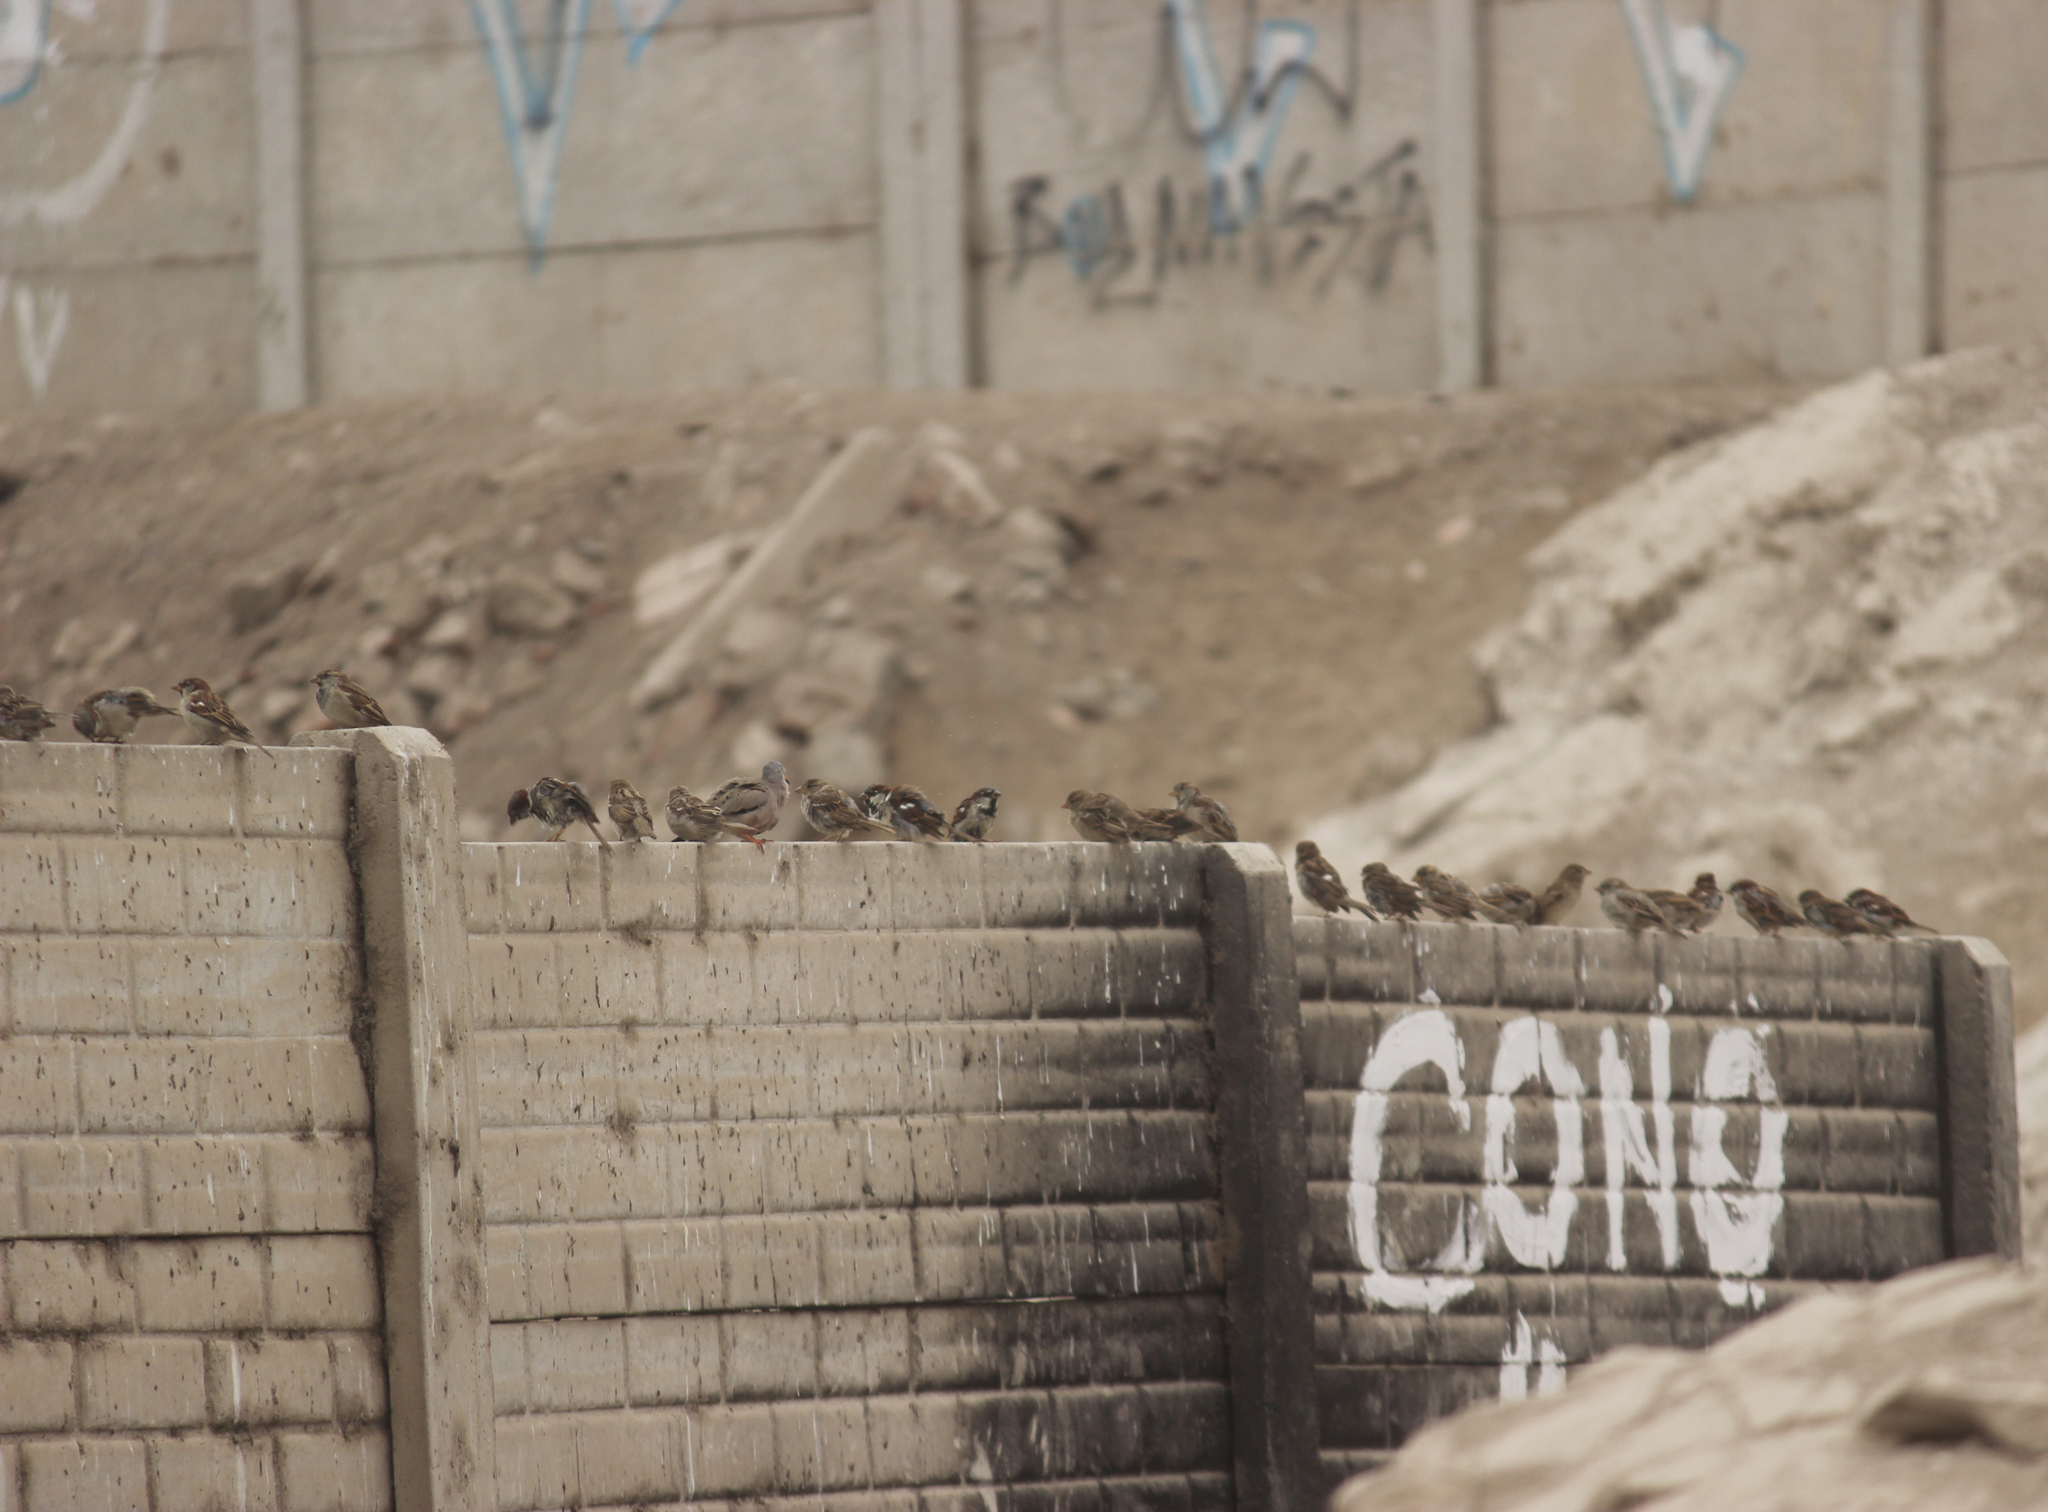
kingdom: Animalia
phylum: Chordata
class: Aves
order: Passeriformes
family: Passeridae
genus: Passer
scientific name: Passer domesticus
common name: House sparrow
